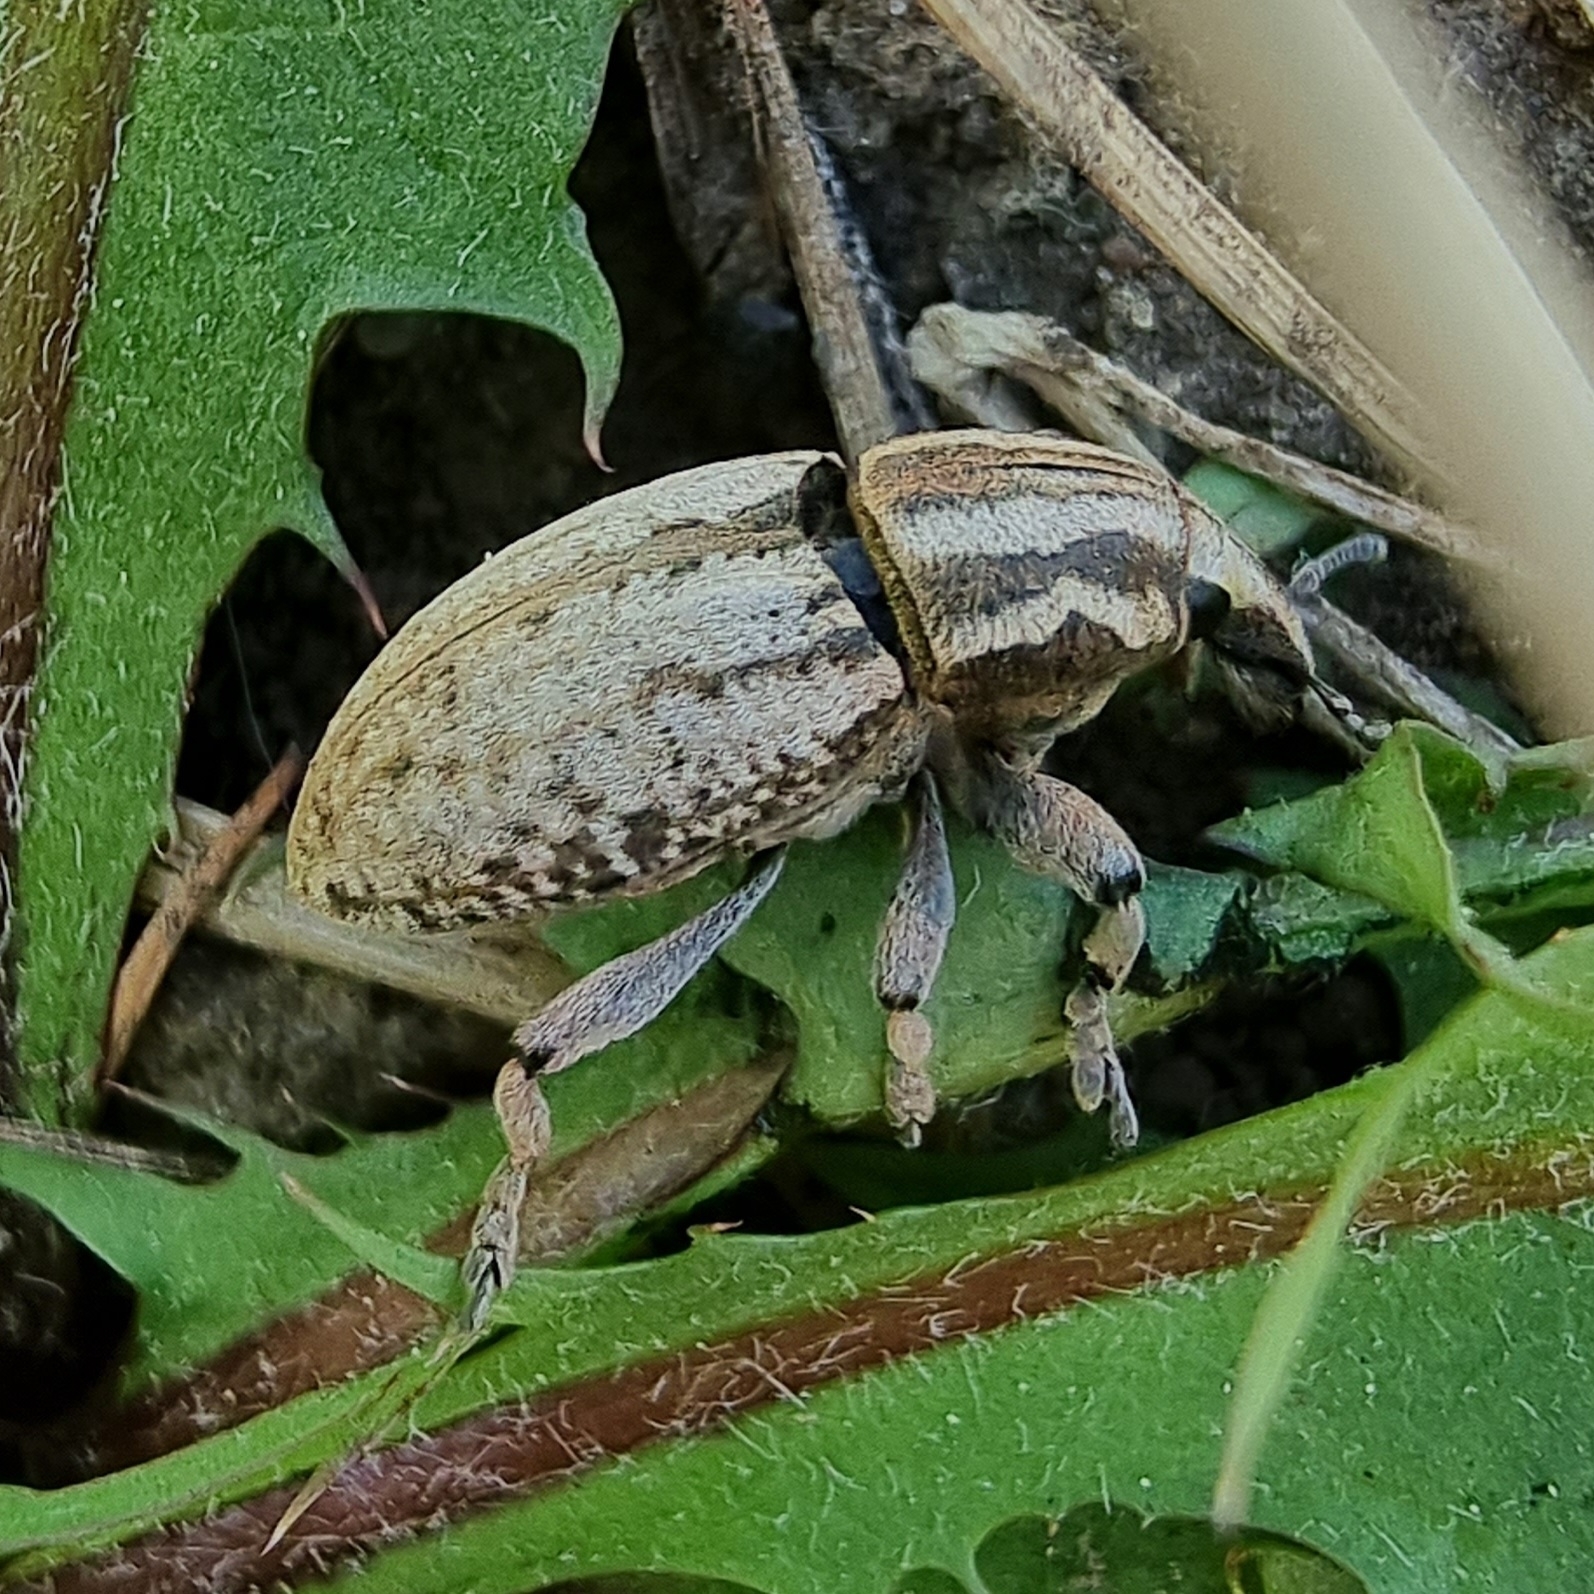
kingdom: Animalia
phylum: Arthropoda
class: Insecta
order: Coleoptera
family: Curculionidae
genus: Pseudocleonus
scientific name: Pseudocleonus cinereus
